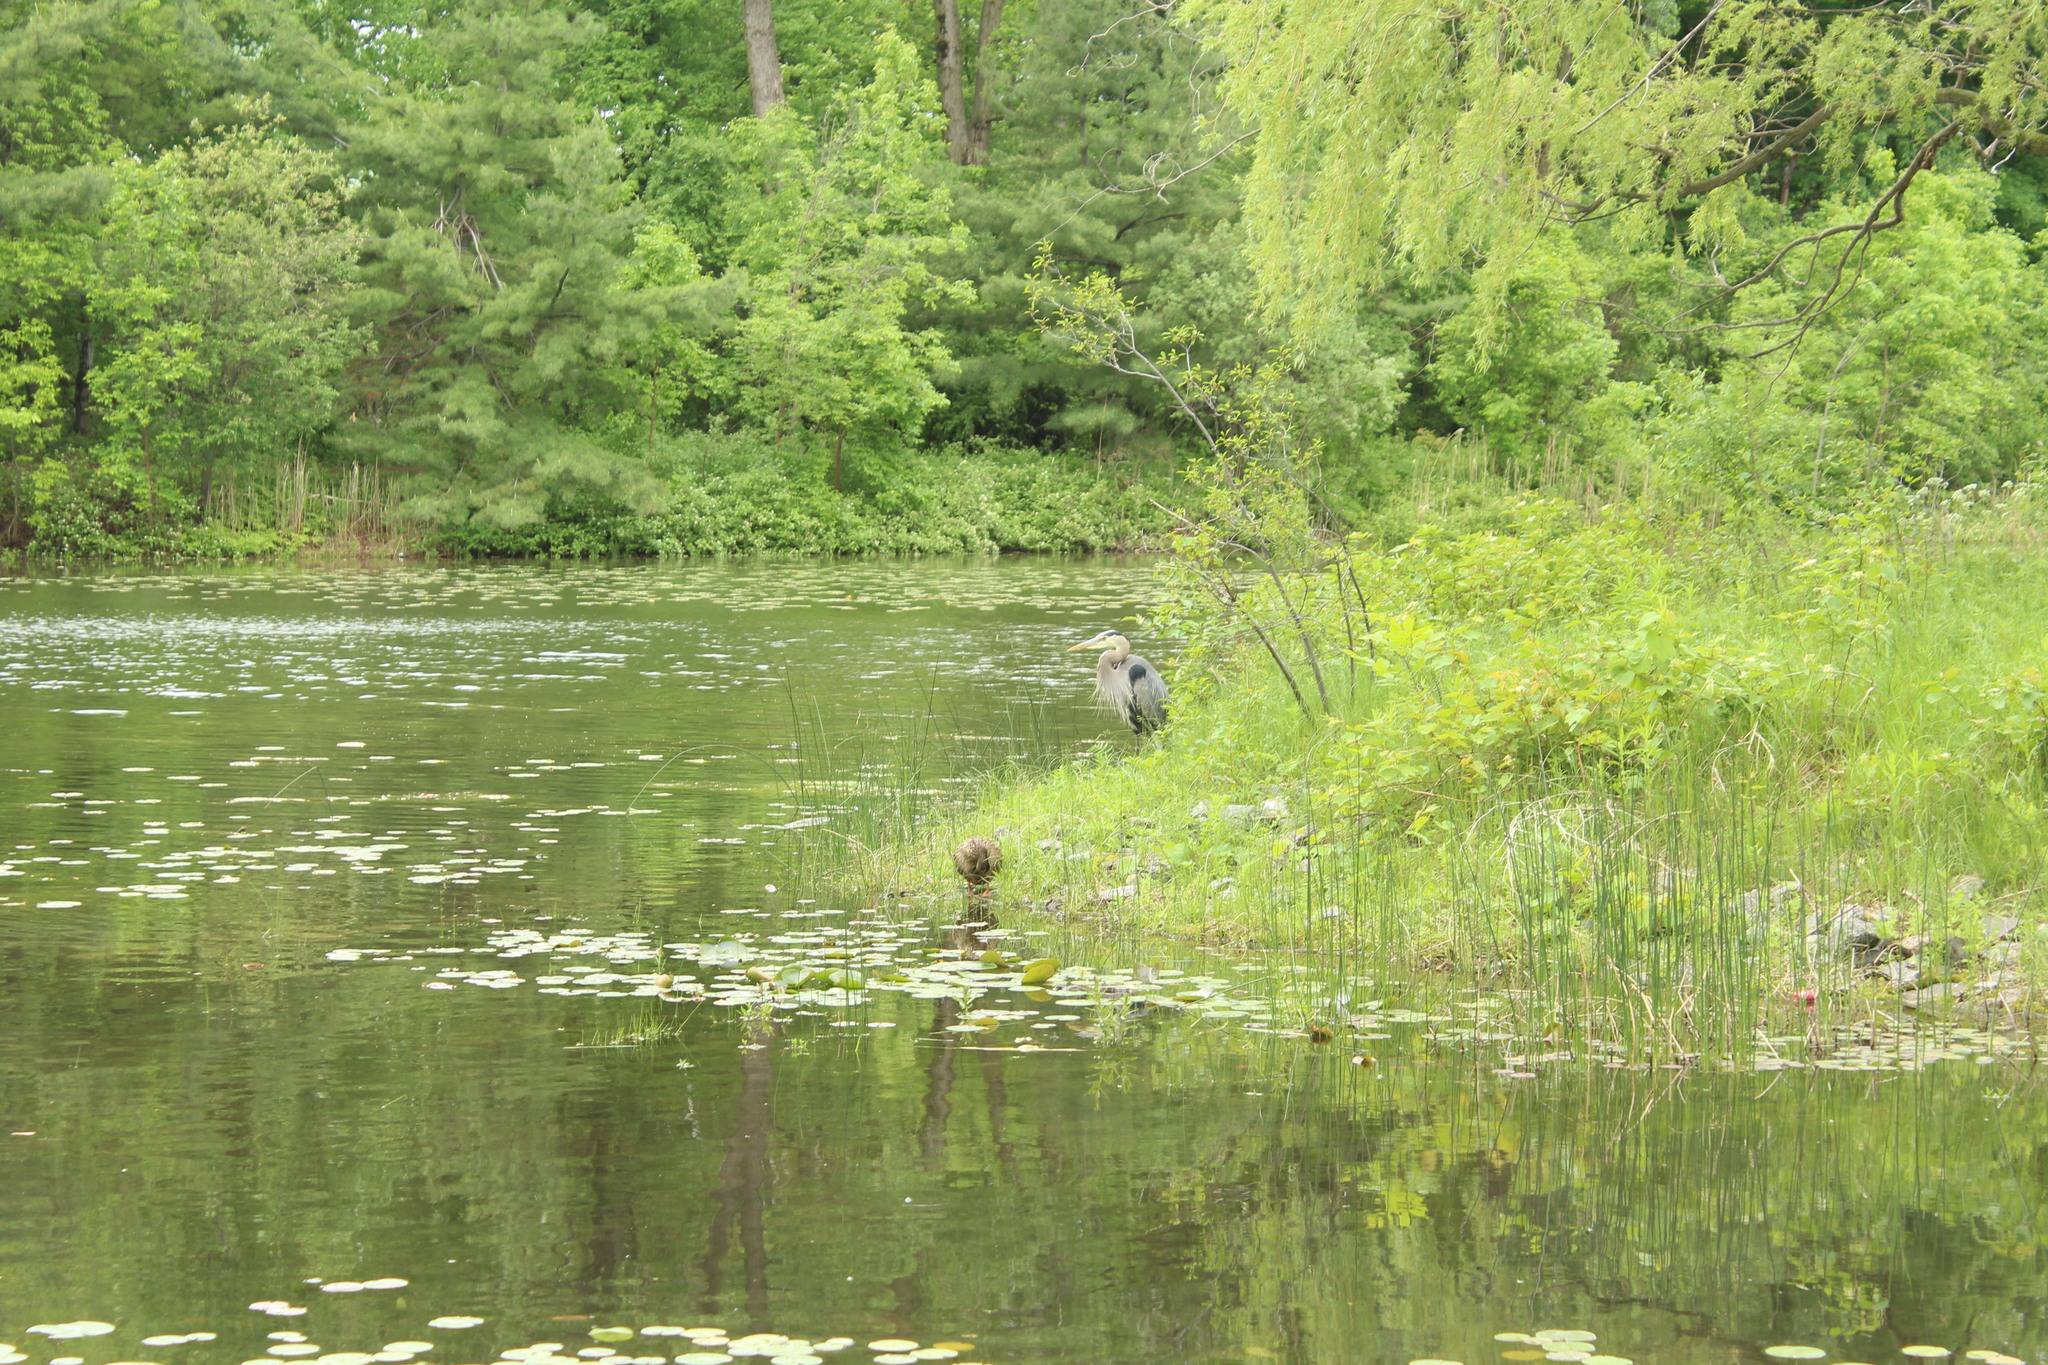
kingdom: Animalia
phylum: Chordata
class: Aves
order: Pelecaniformes
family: Ardeidae
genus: Ardea
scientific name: Ardea herodias
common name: Great blue heron
